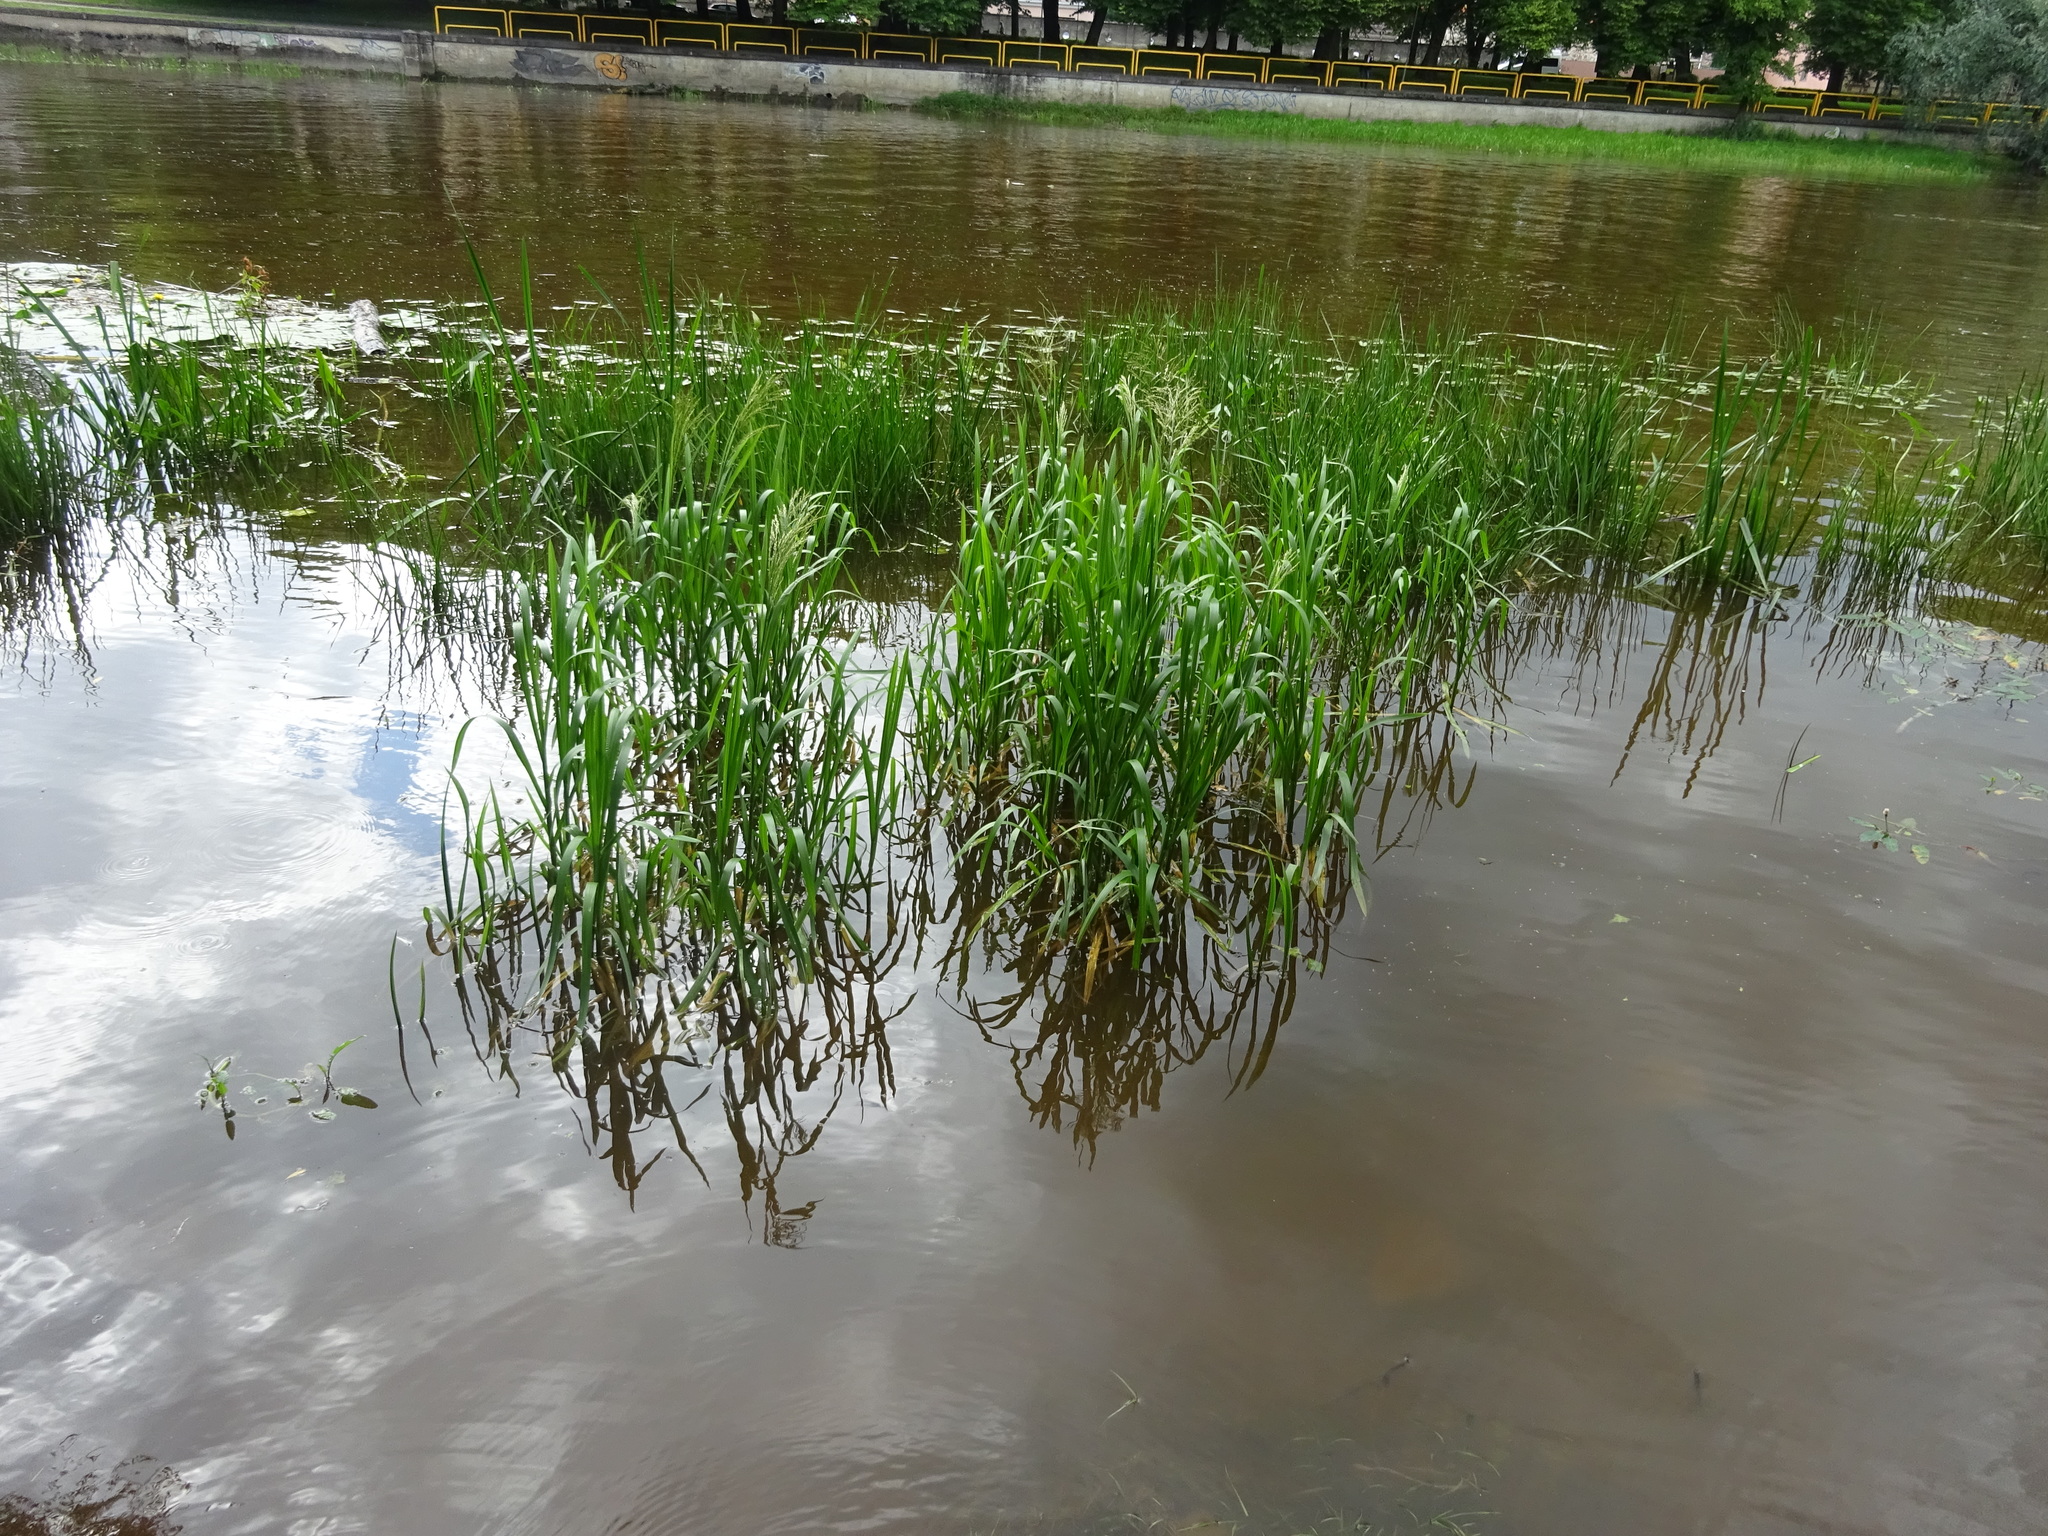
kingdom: Plantae
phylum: Tracheophyta
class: Liliopsida
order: Poales
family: Poaceae
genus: Glyceria
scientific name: Glyceria maxima
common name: Reed mannagrass
